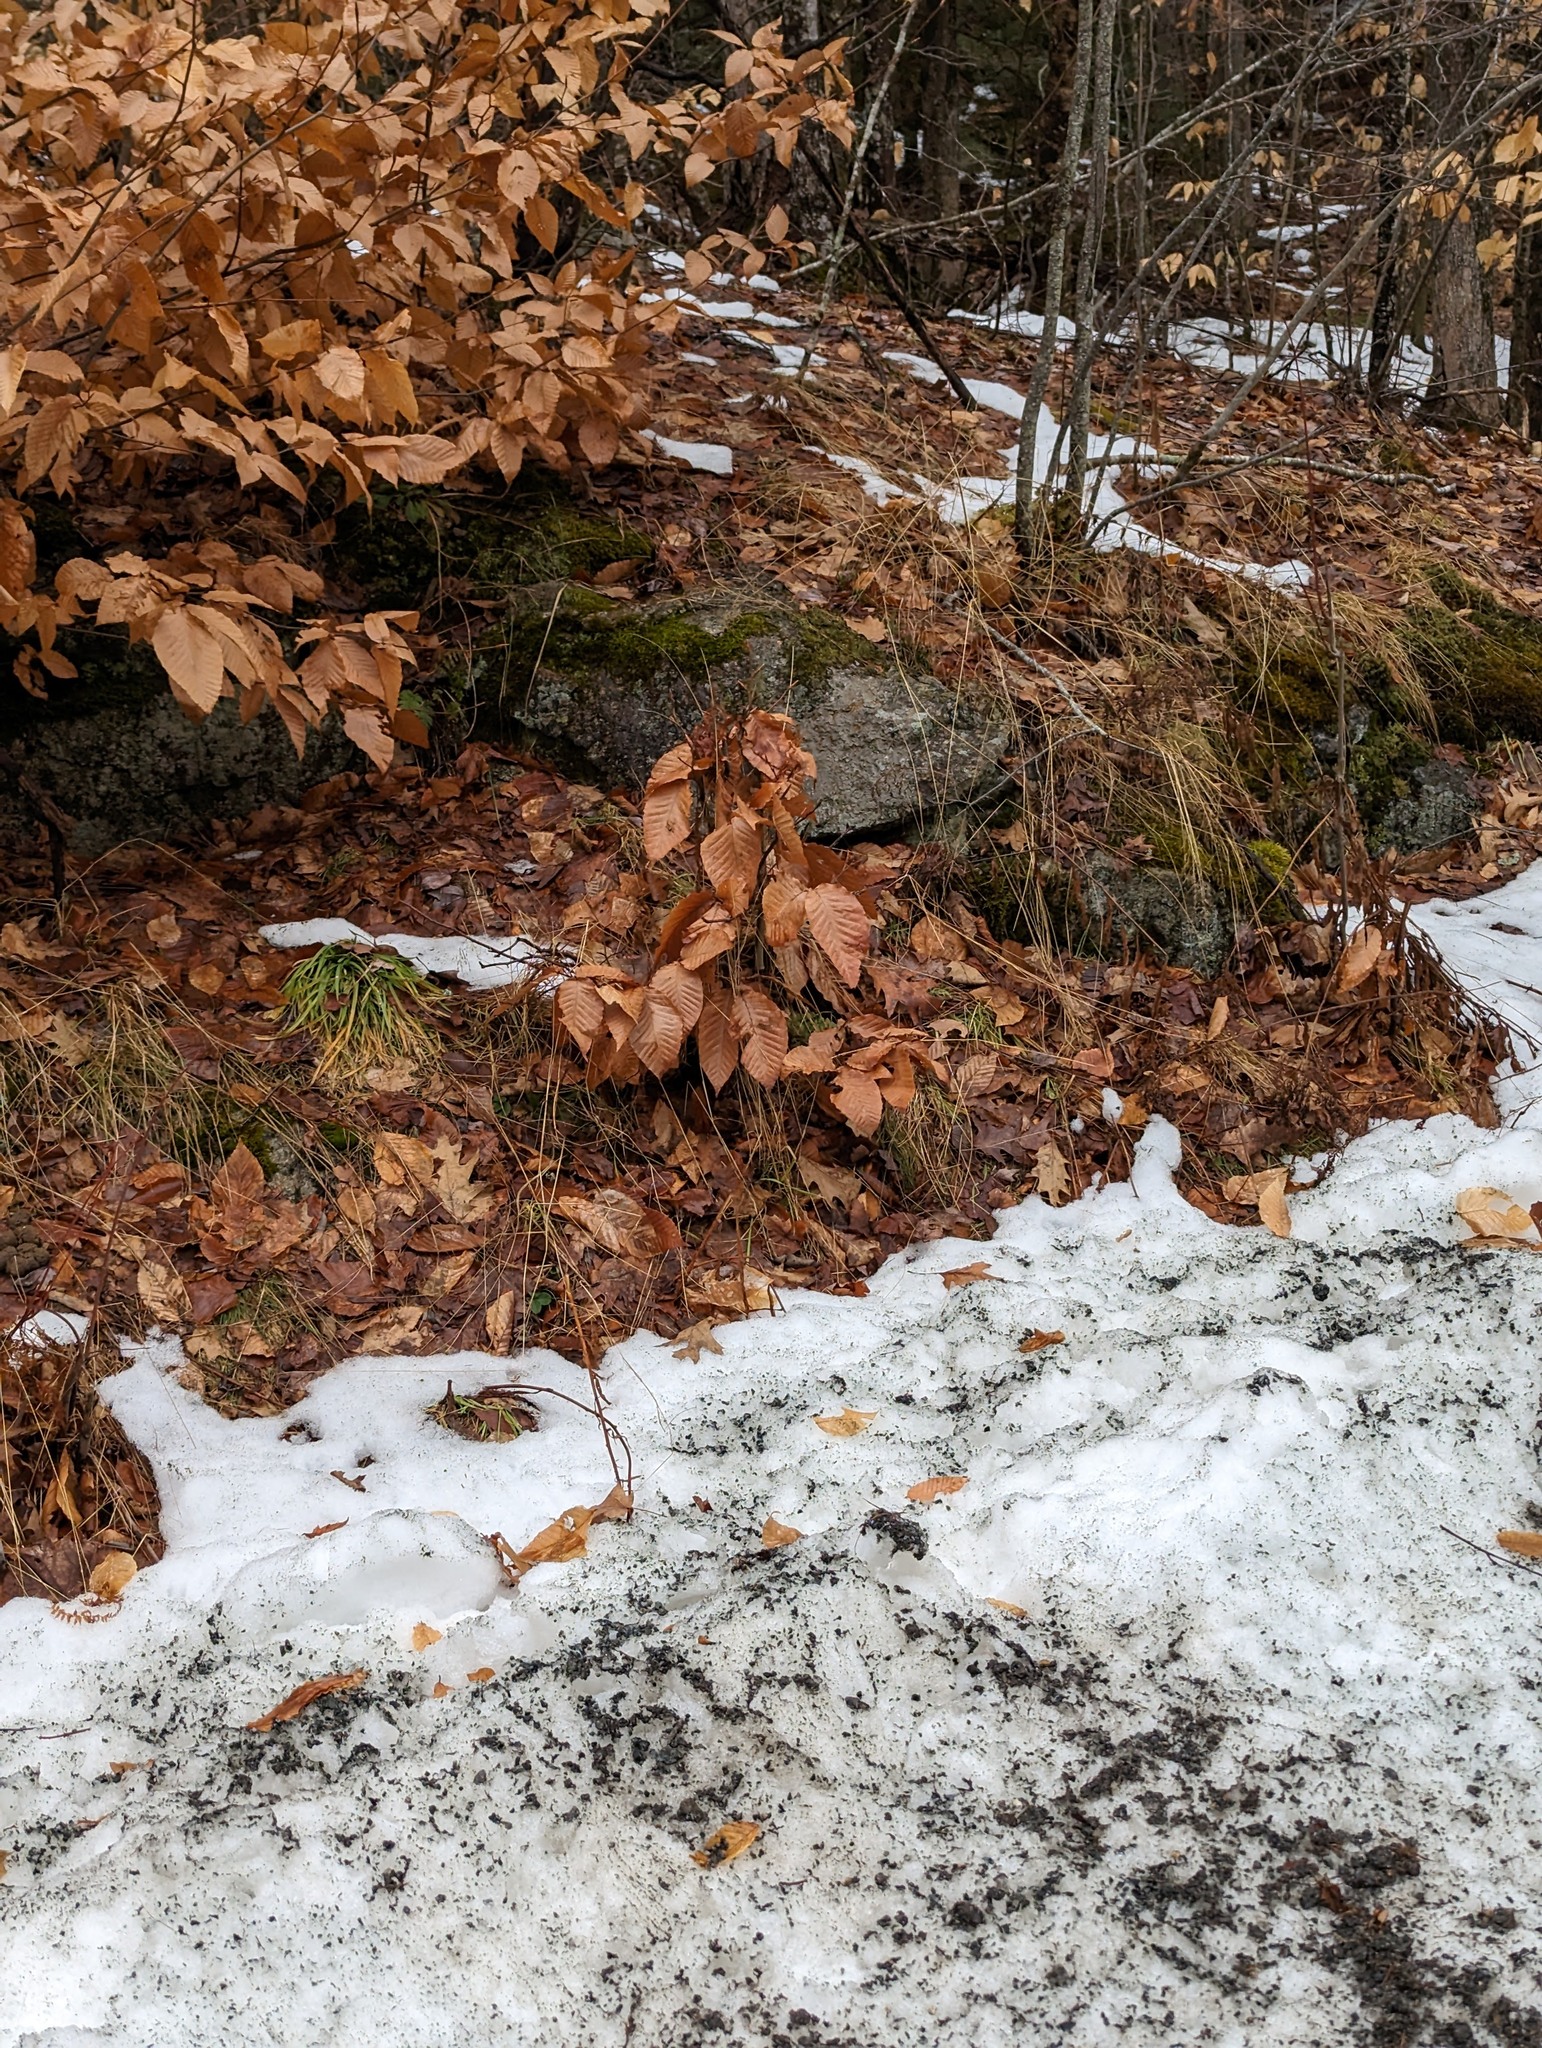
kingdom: Plantae
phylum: Tracheophyta
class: Magnoliopsida
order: Fagales
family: Fagaceae
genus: Fagus
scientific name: Fagus grandifolia
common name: American beech
